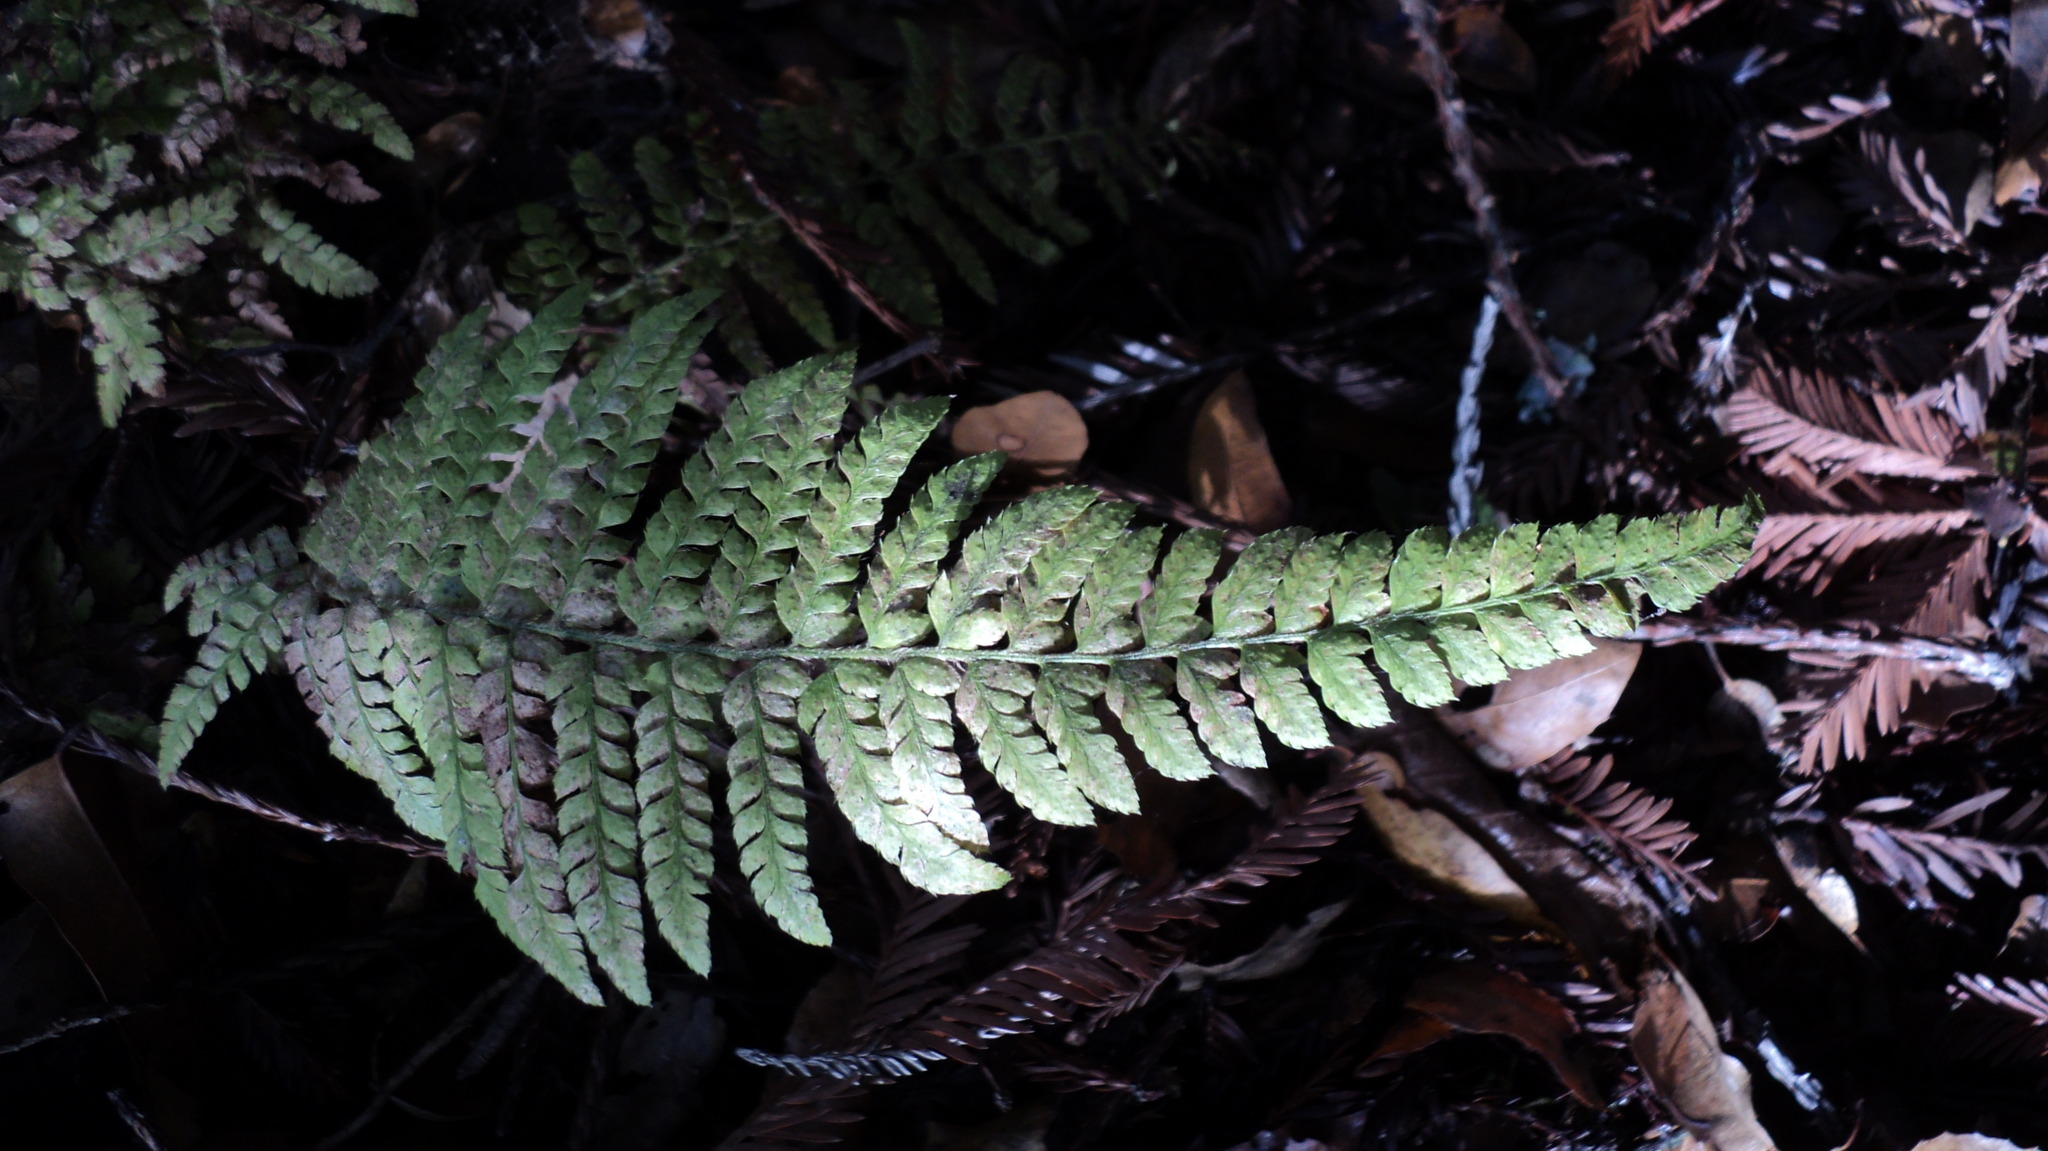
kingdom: Plantae
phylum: Tracheophyta
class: Polypodiopsida
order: Polypodiales
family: Dryopteridaceae
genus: Polystichum
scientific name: Polystichum dudleyi
